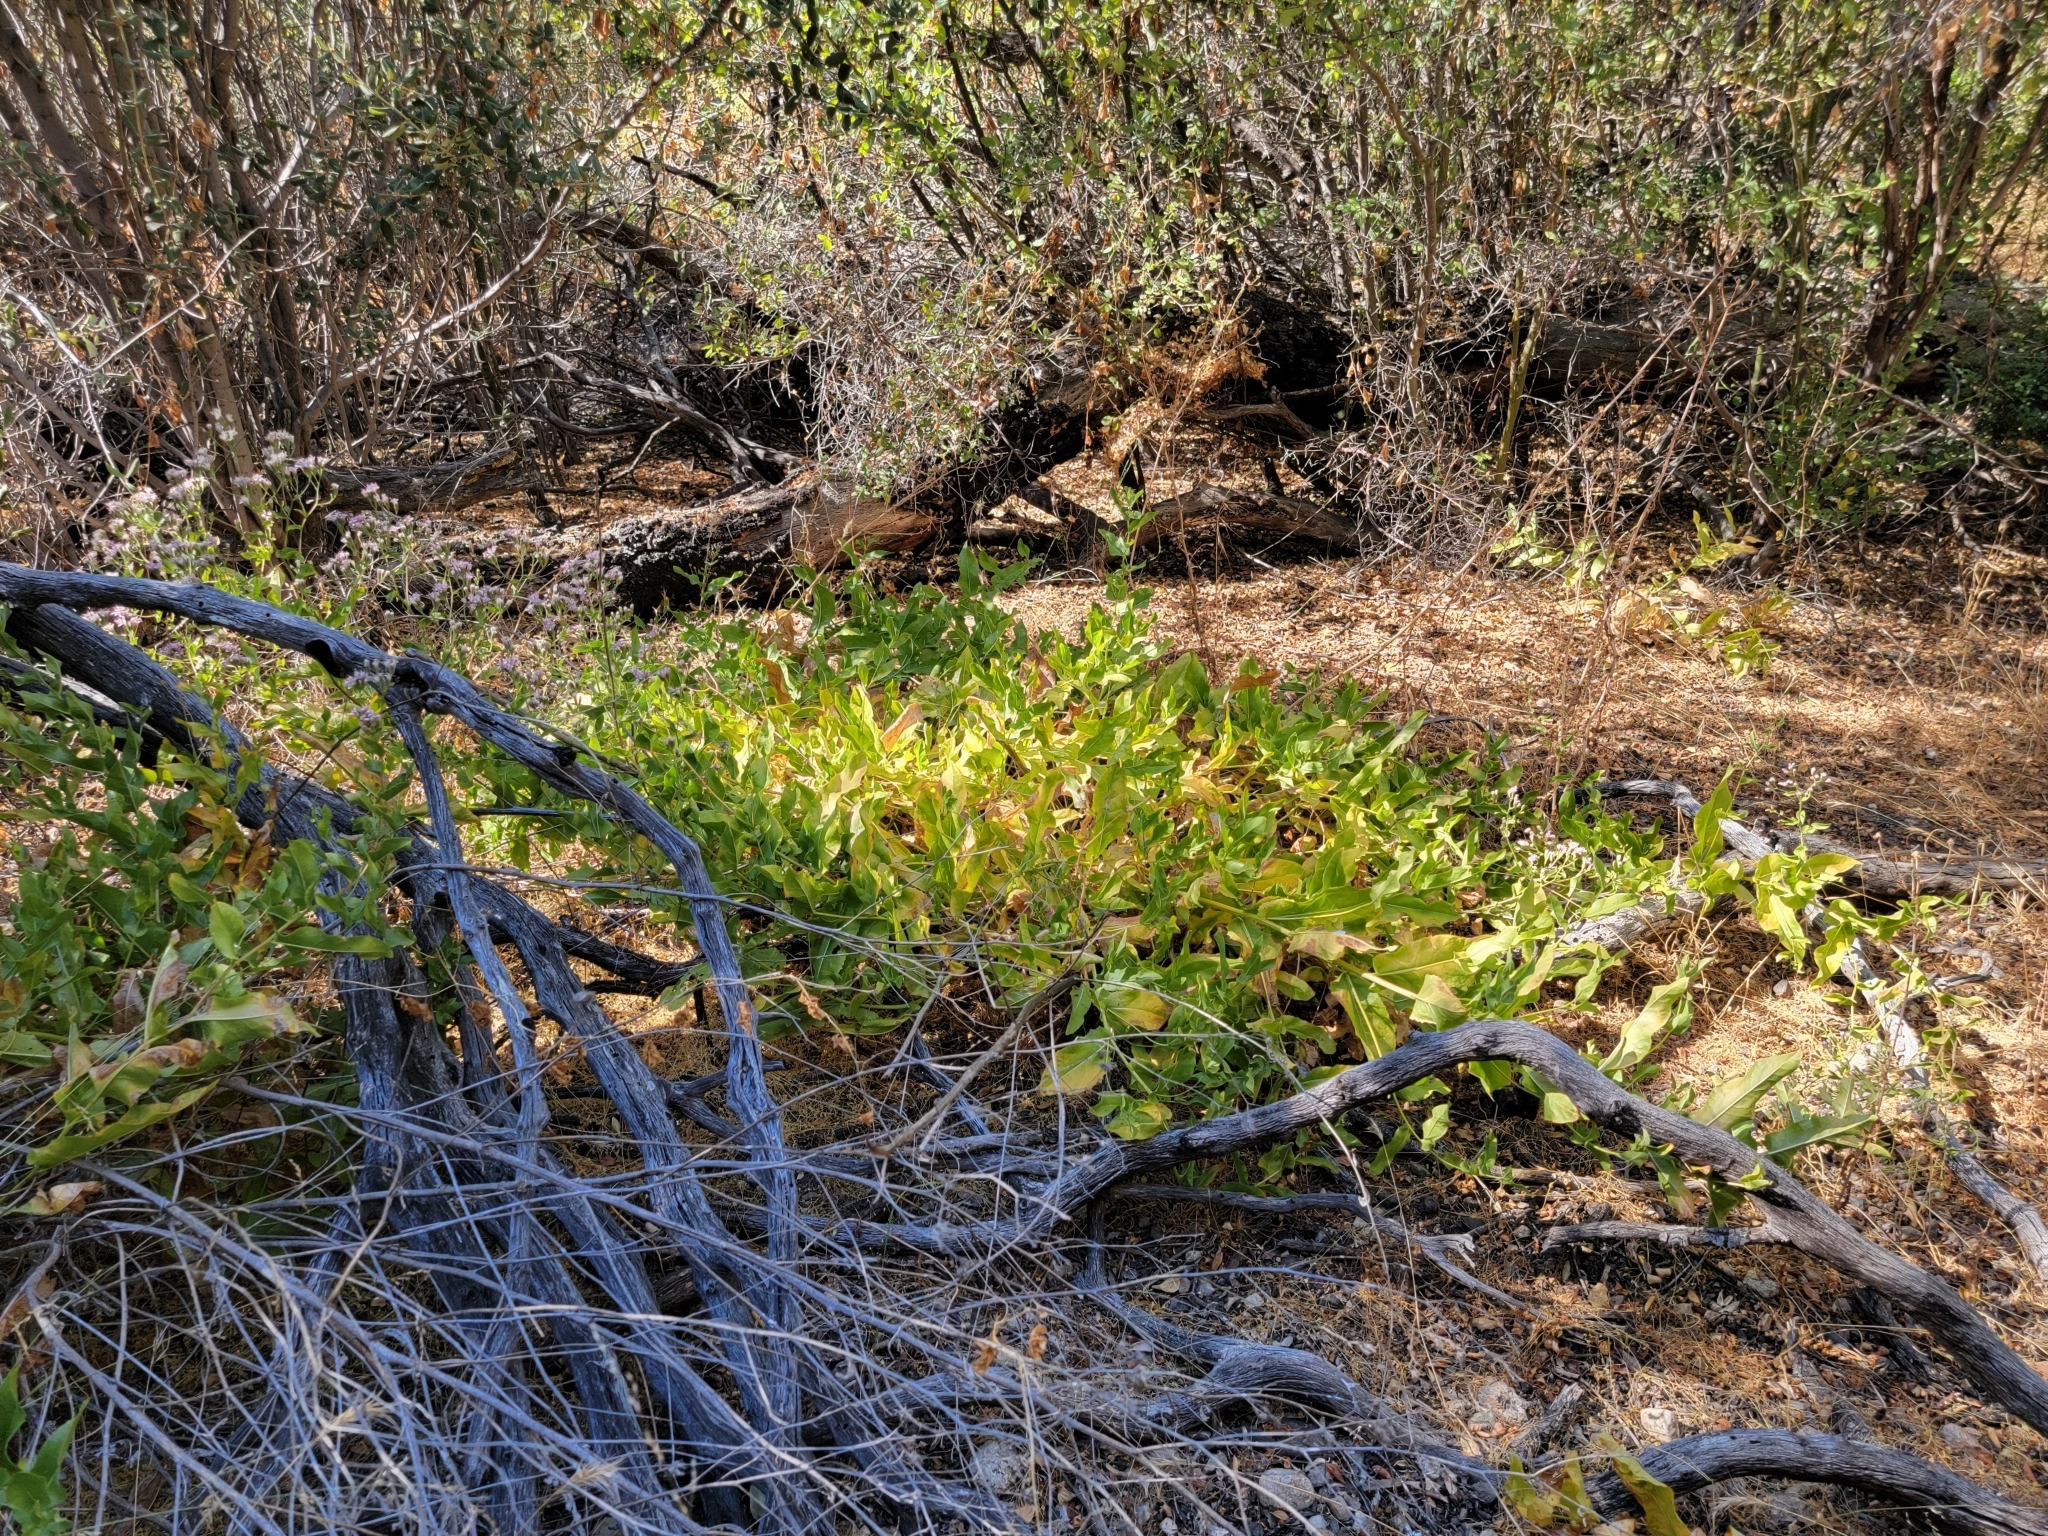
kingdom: Plantae
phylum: Tracheophyta
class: Magnoliopsida
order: Asterales
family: Asteraceae
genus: Acourtia
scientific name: Acourtia microcephala
